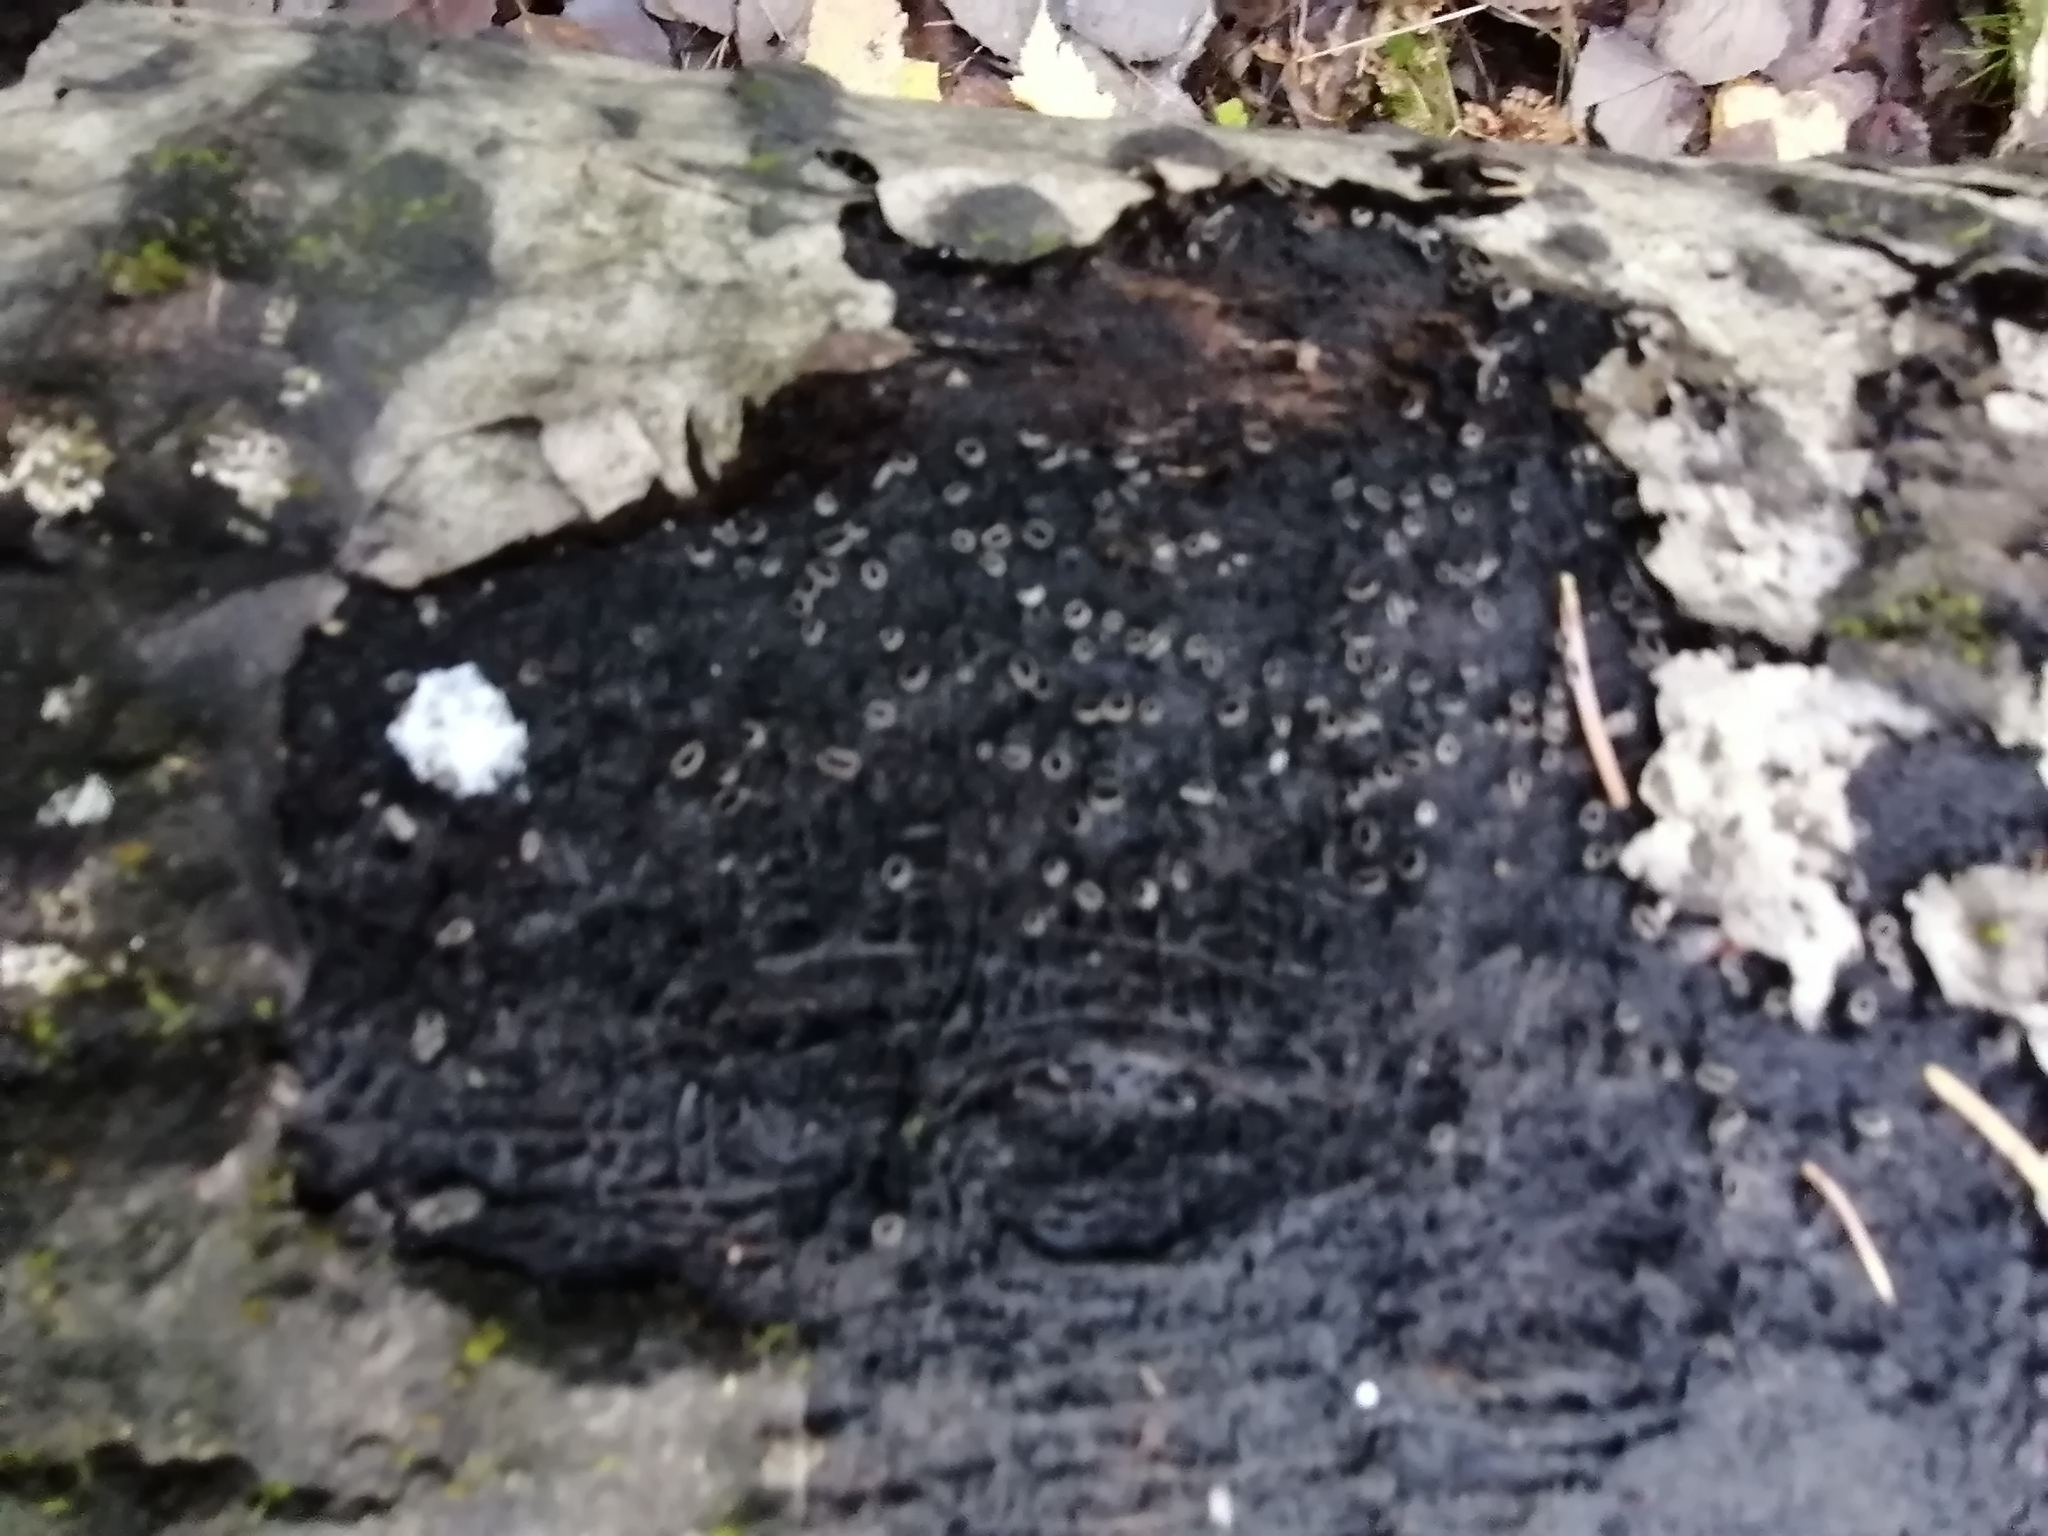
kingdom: Fungi
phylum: Ascomycota
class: Leotiomycetes
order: Helotiales
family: Sclerotiniaceae
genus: Sclerencoelia
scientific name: Sclerencoelia pruinosa
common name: Sooty-bark canker
